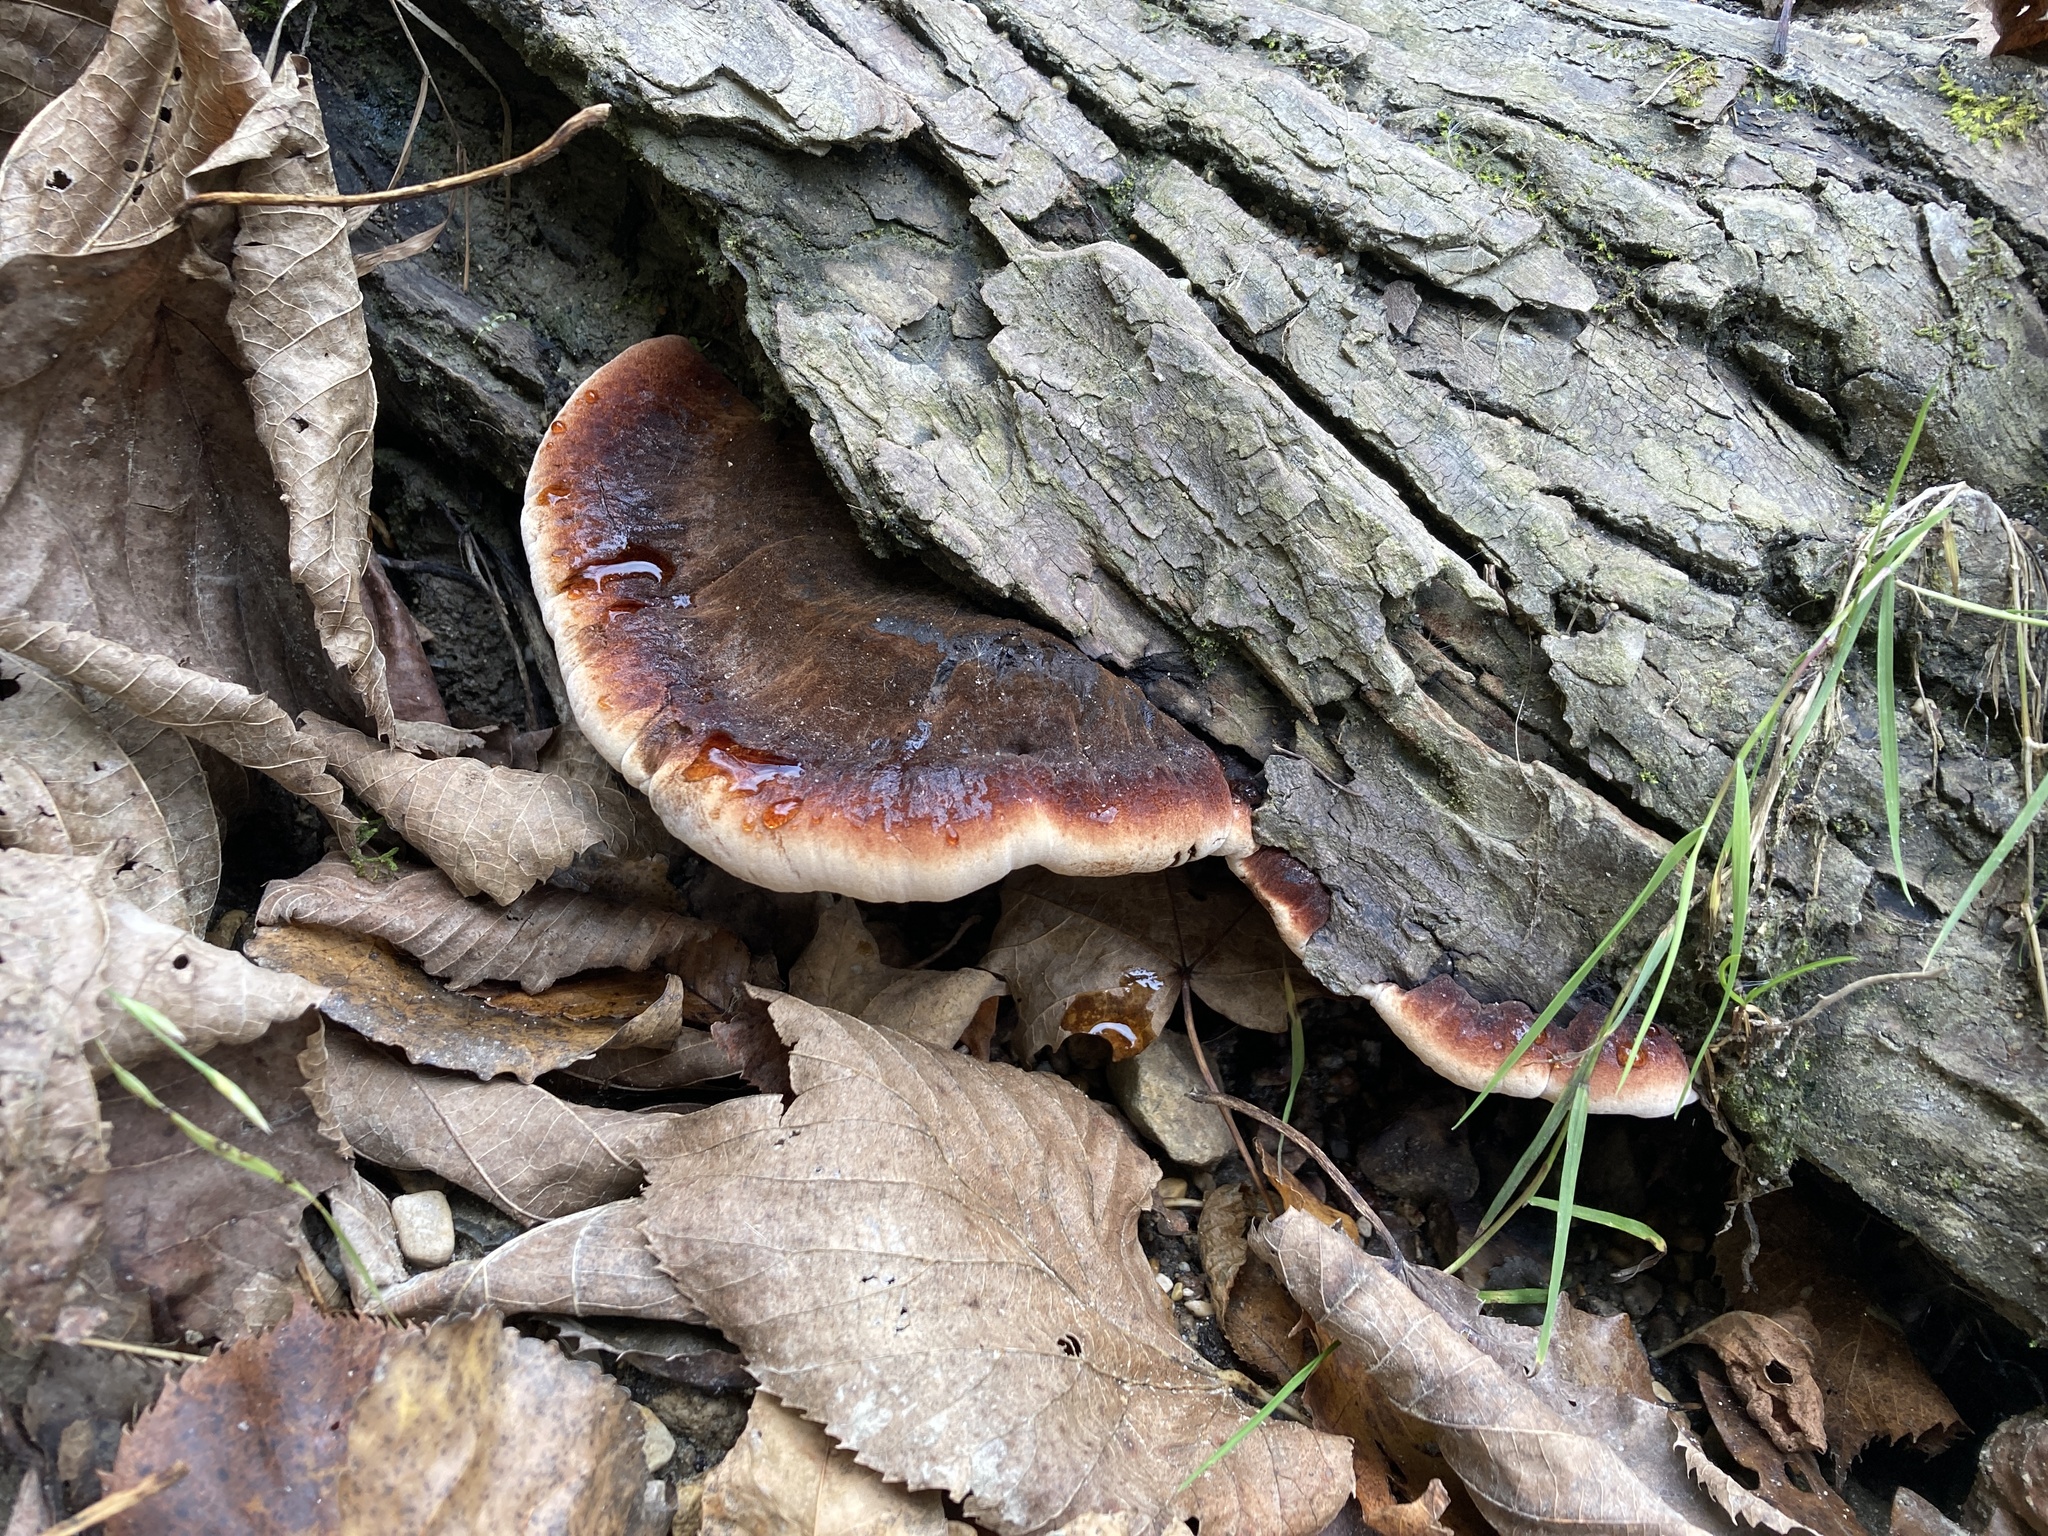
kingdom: Fungi
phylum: Basidiomycota
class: Agaricomycetes
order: Polyporales
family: Ischnodermataceae
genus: Ischnoderma
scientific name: Ischnoderma resinosum
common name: Resinous polypore
